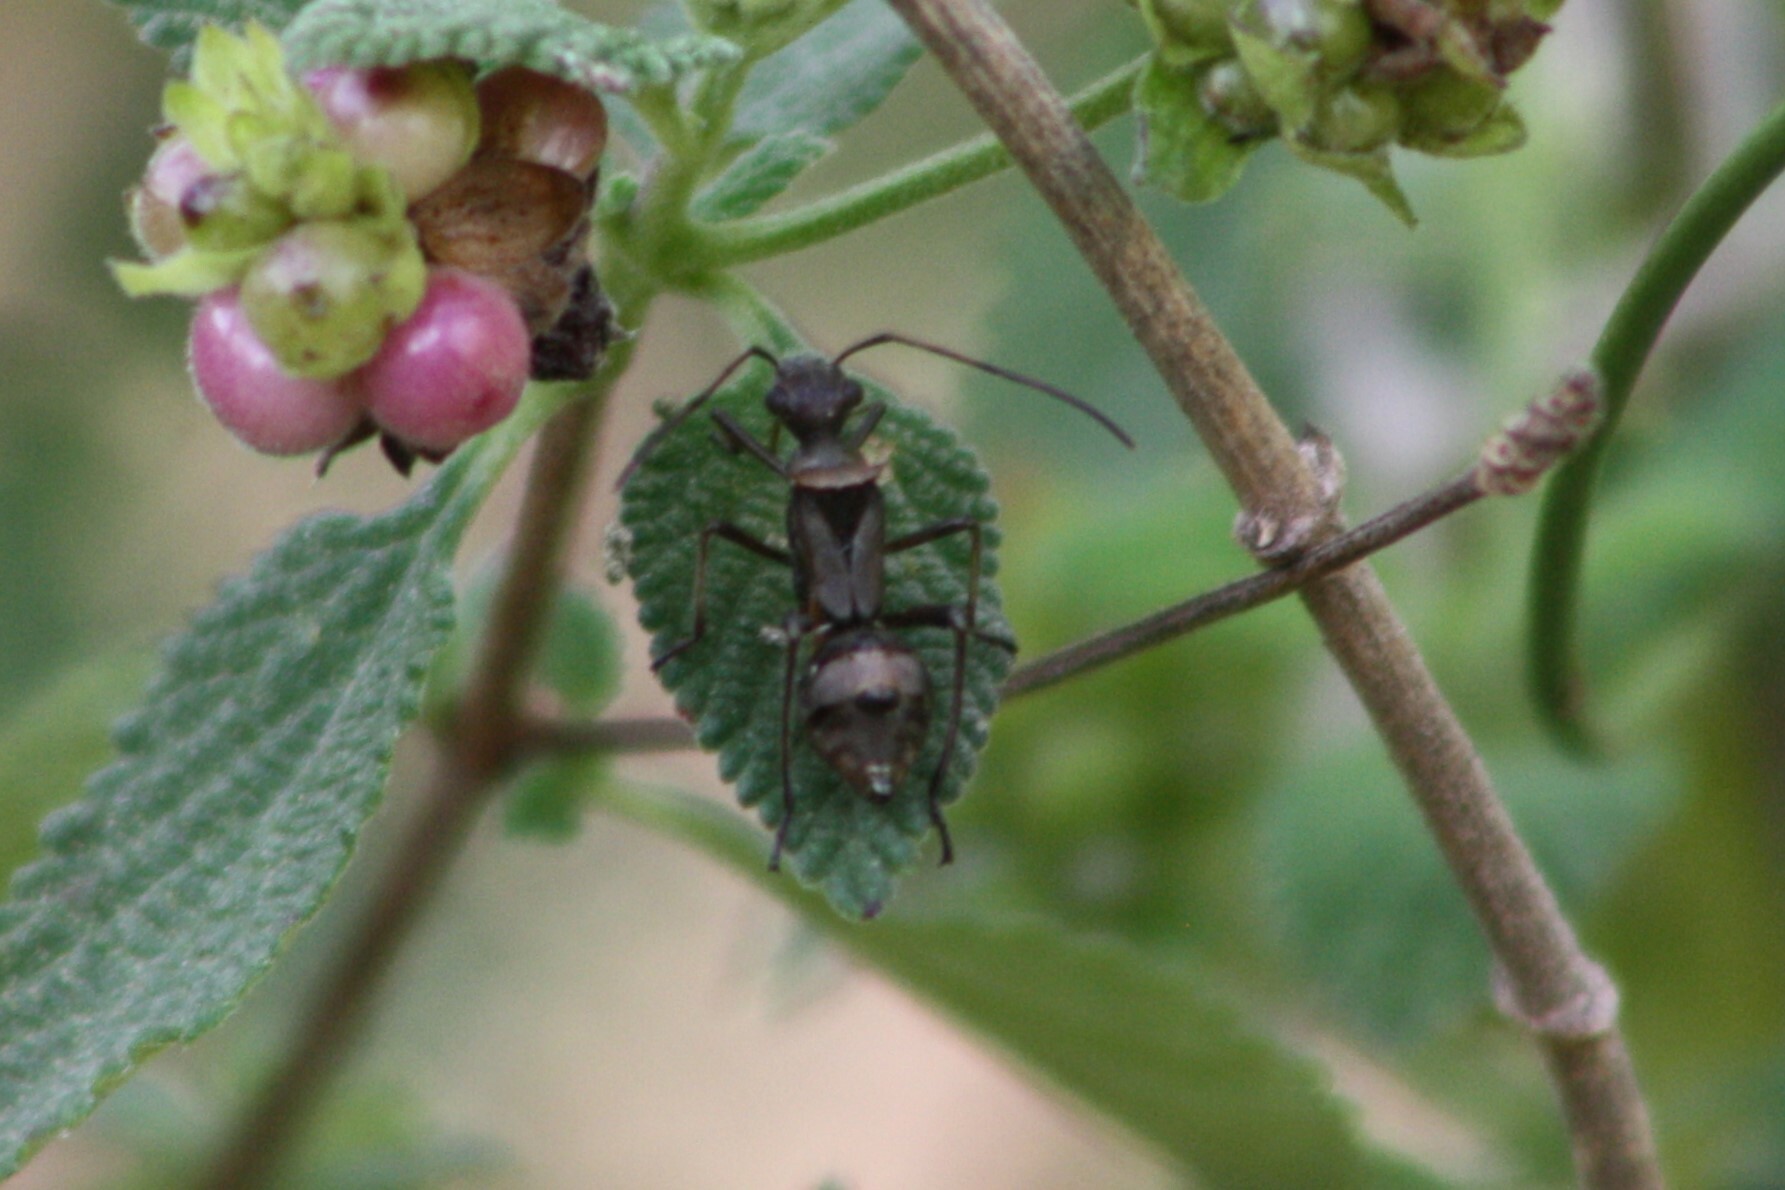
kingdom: Animalia
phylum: Arthropoda
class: Insecta
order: Hemiptera
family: Alydidae
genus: Hyalymenus
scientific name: Hyalymenus tarsatus
